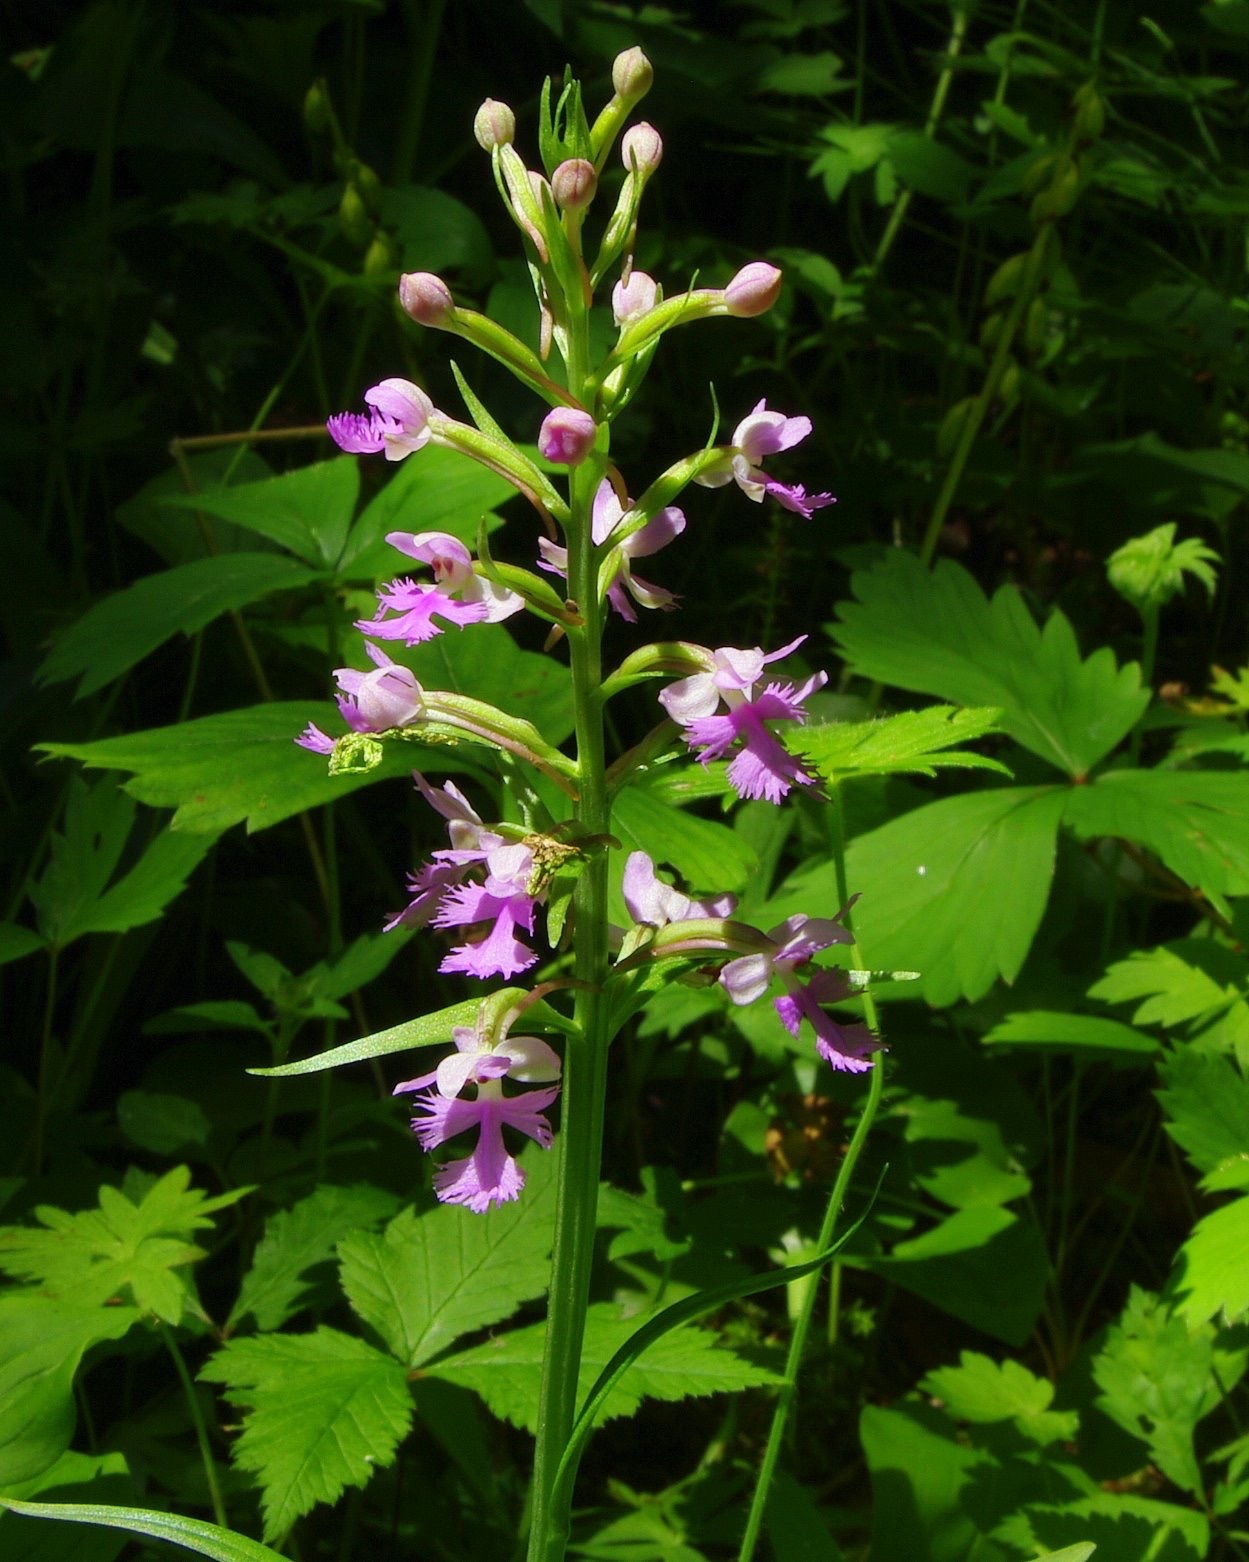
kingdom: Plantae
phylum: Tracheophyta
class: Liliopsida
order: Asparagales
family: Orchidaceae
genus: Platanthera
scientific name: Platanthera psycodes
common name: Lesser purple fringed orchid
